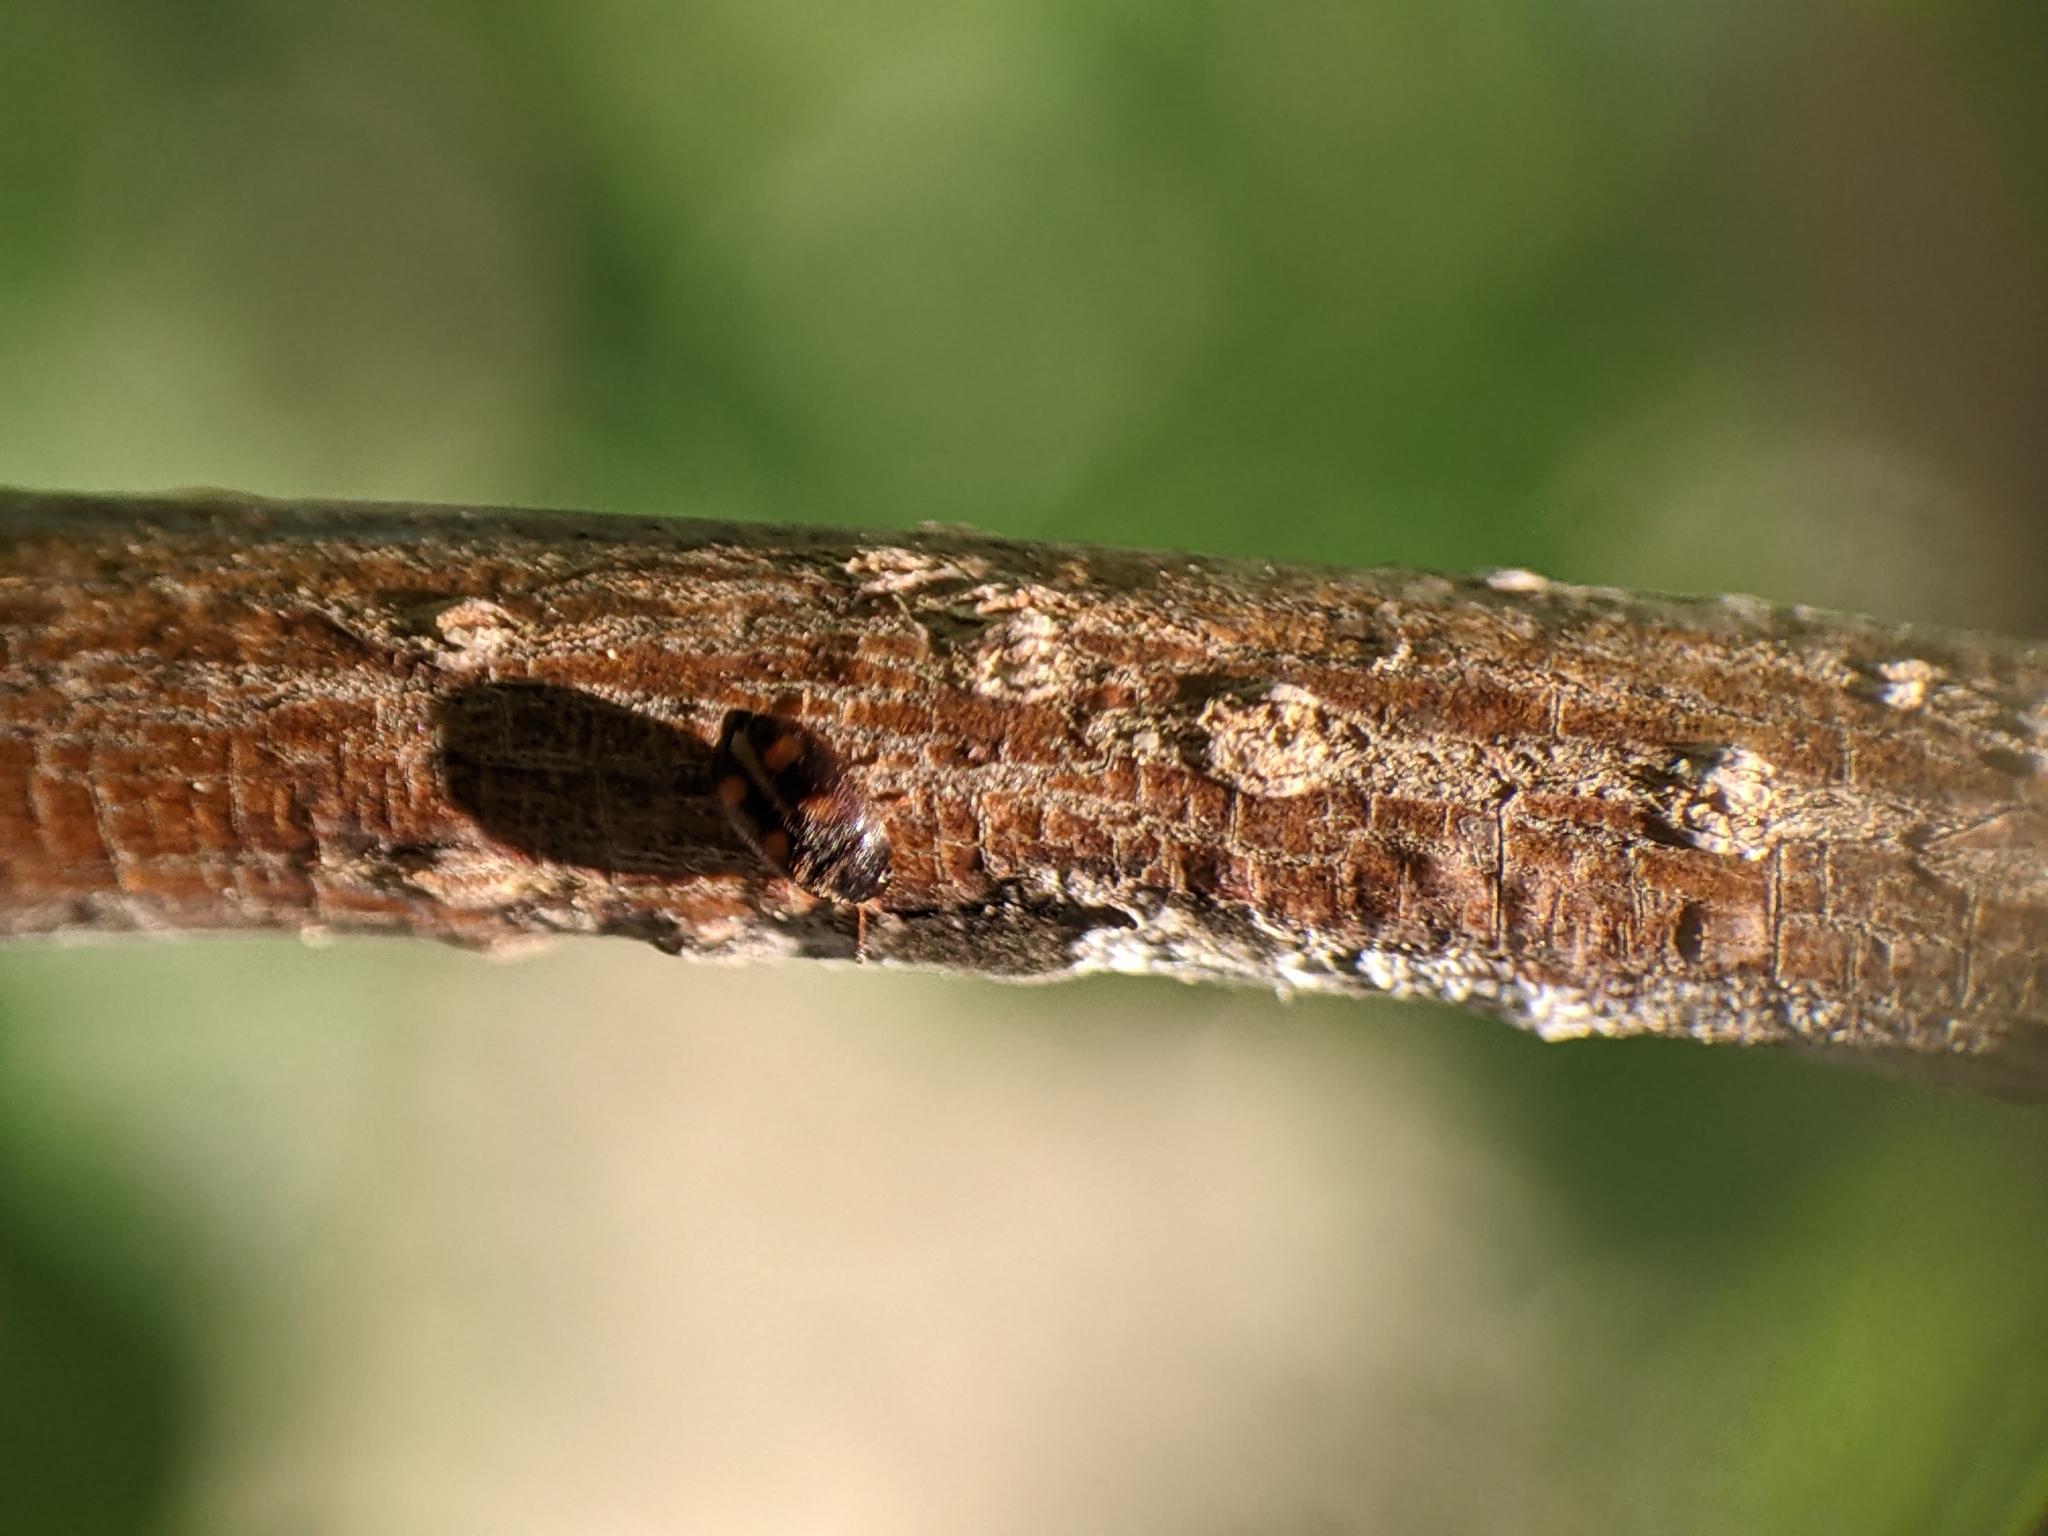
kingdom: Animalia
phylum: Arthropoda
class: Insecta
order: Coleoptera
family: Nitidulidae
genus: Glischrochilus
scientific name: Glischrochilus fasciatus
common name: Picnic beetle
